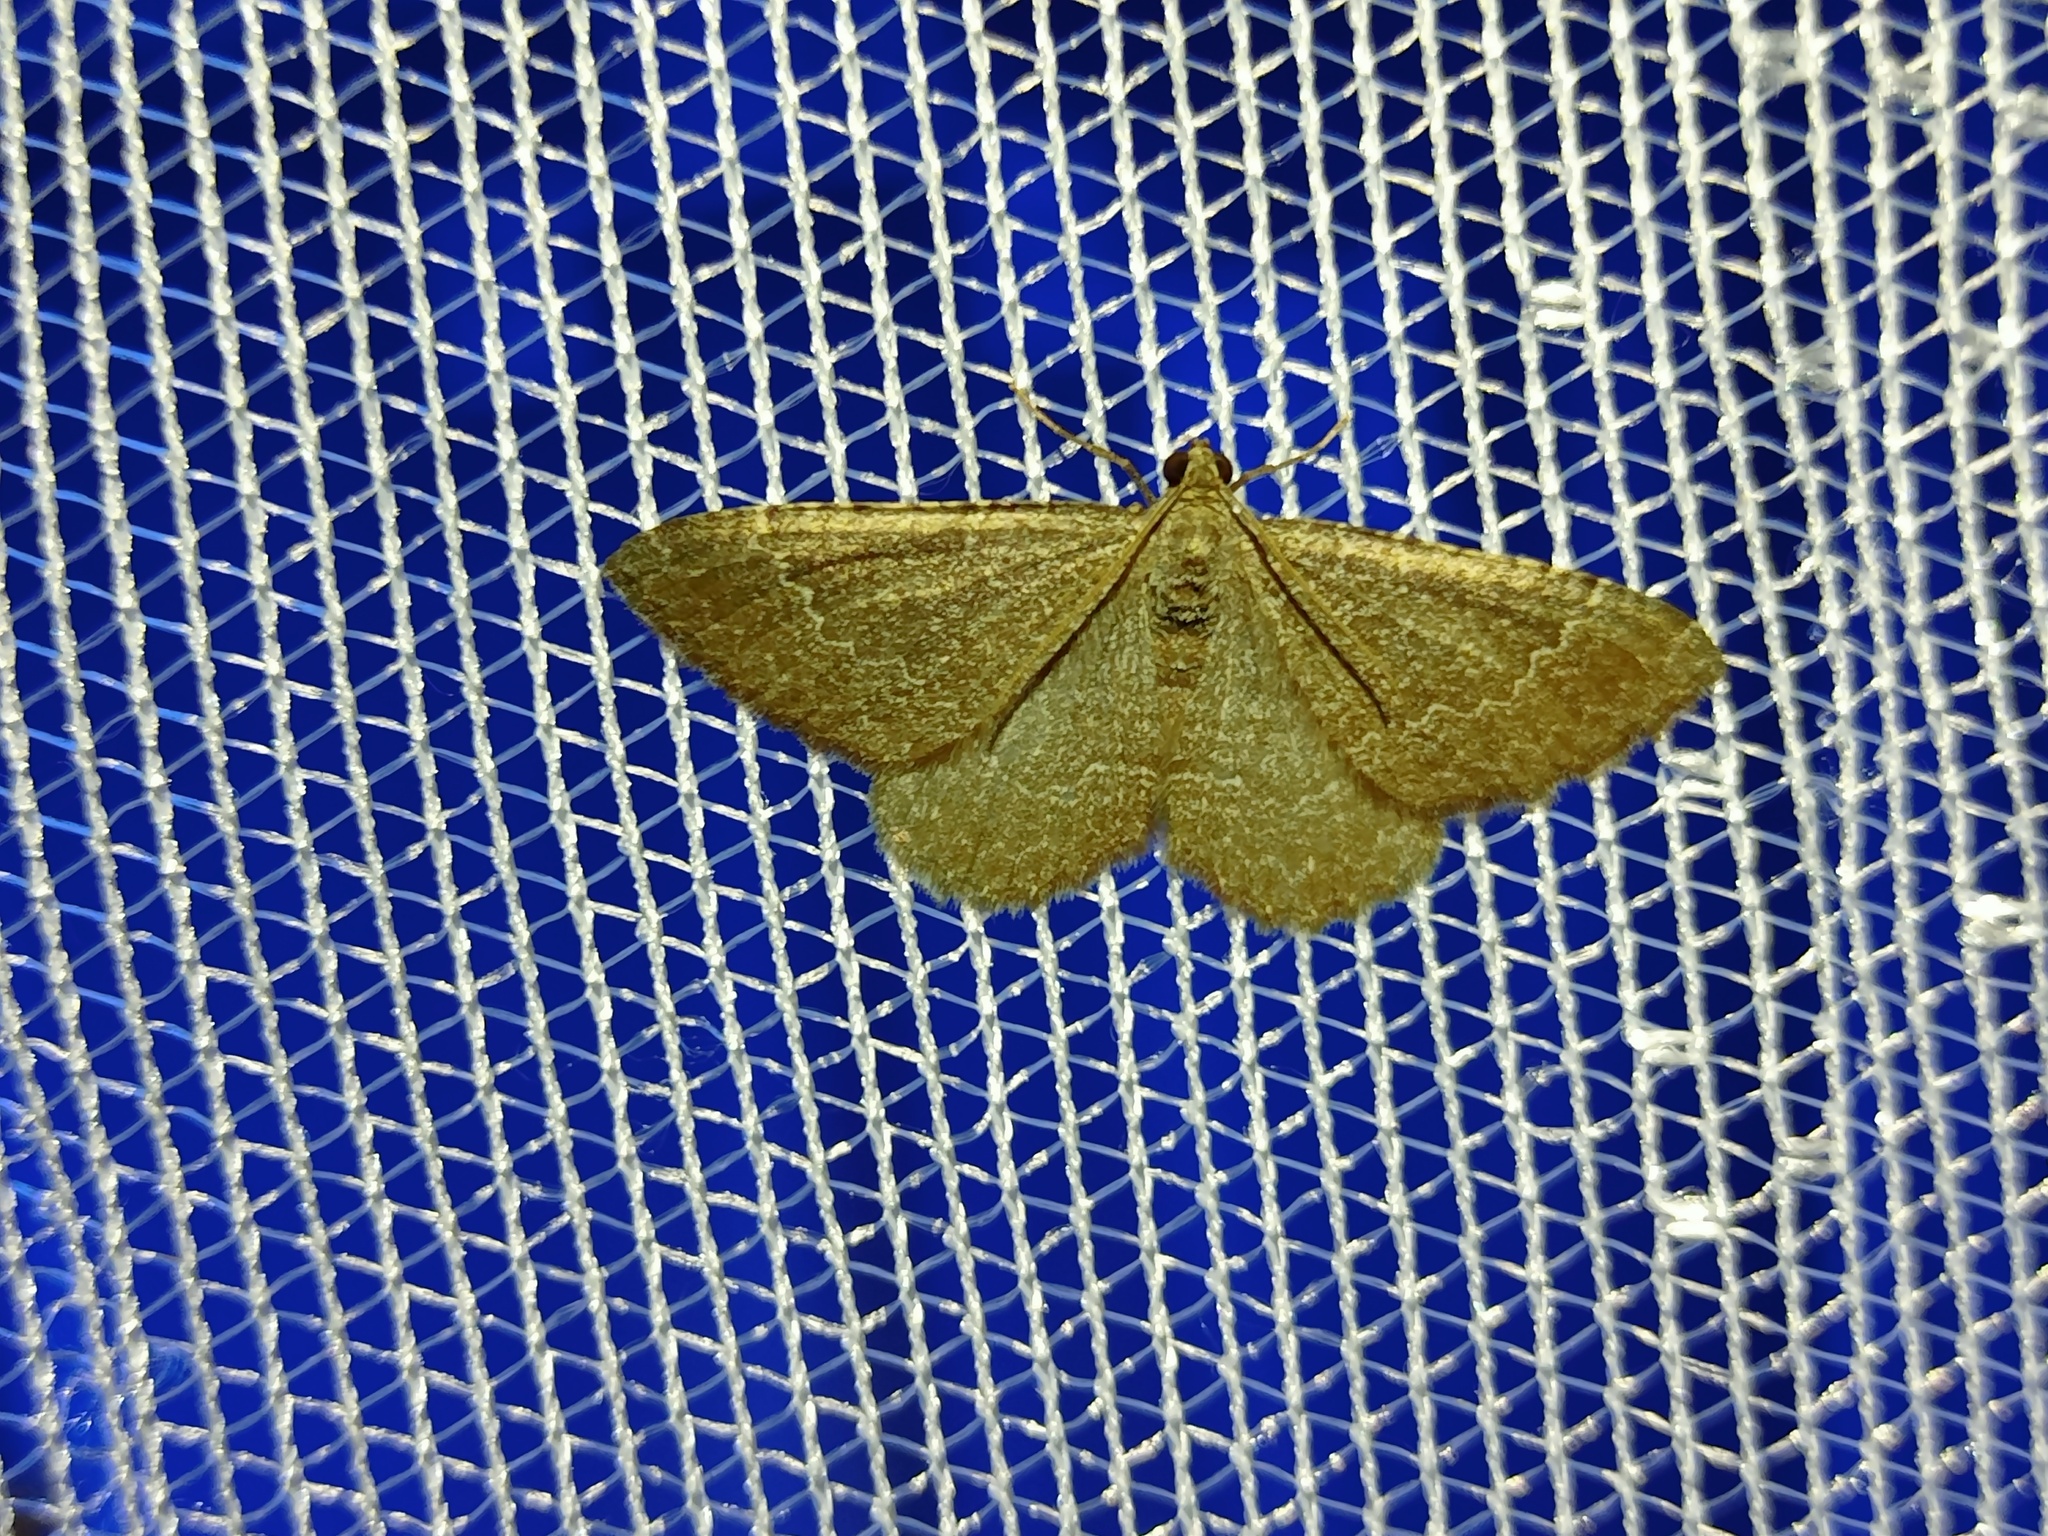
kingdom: Animalia
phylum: Arthropoda
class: Insecta
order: Lepidoptera
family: Geometridae
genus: Cataclysme
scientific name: Cataclysme riguata
